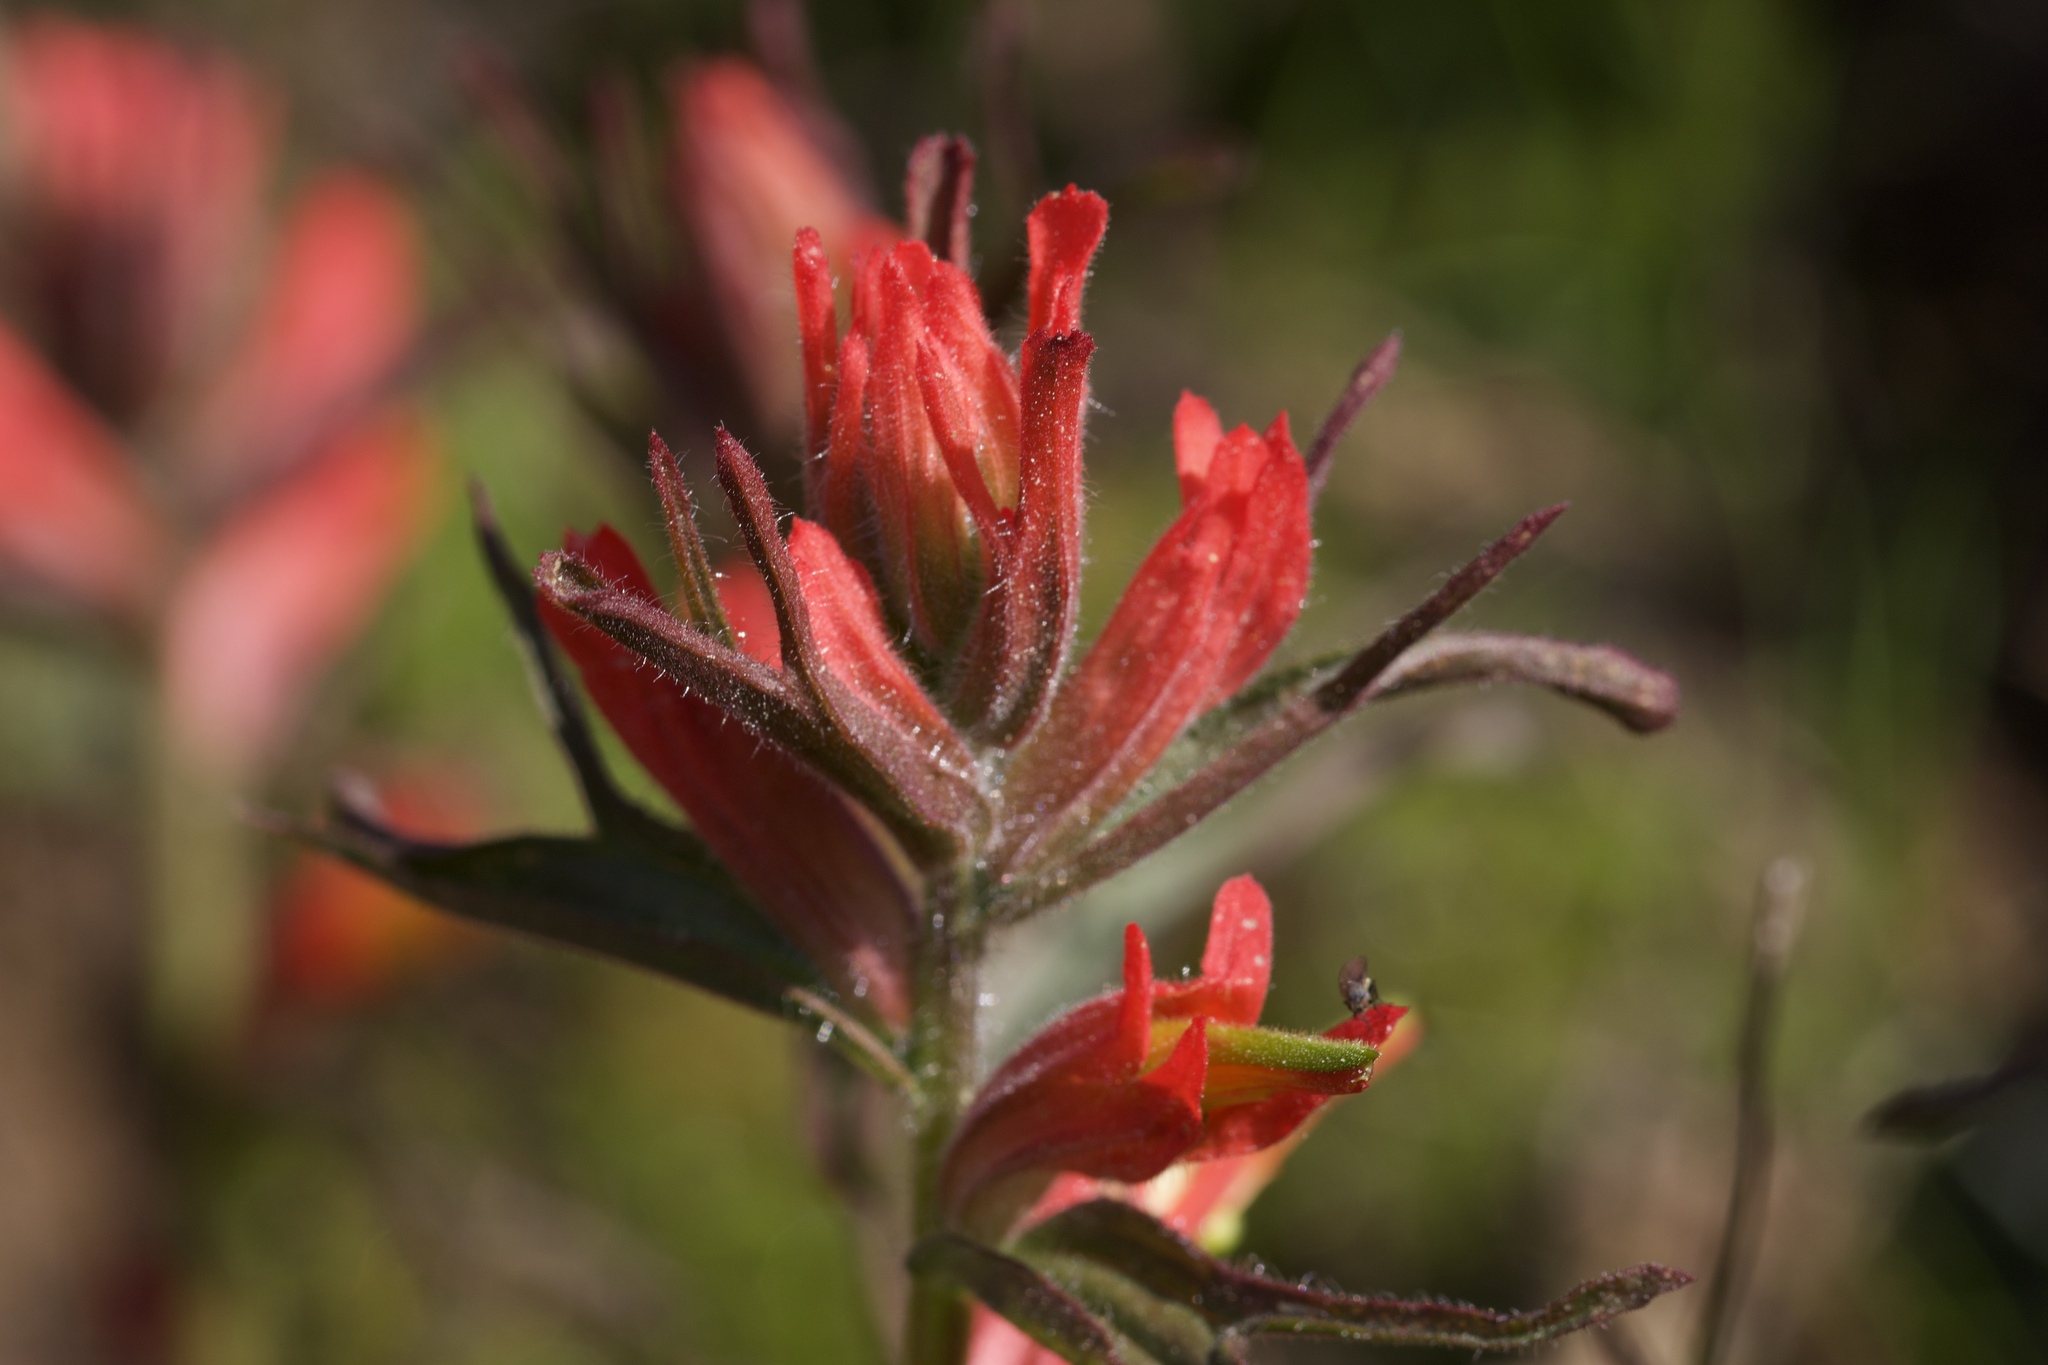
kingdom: Plantae
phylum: Tracheophyta
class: Magnoliopsida
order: Lamiales
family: Orobanchaceae
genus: Castilleja
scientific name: Castilleja subinclusa
